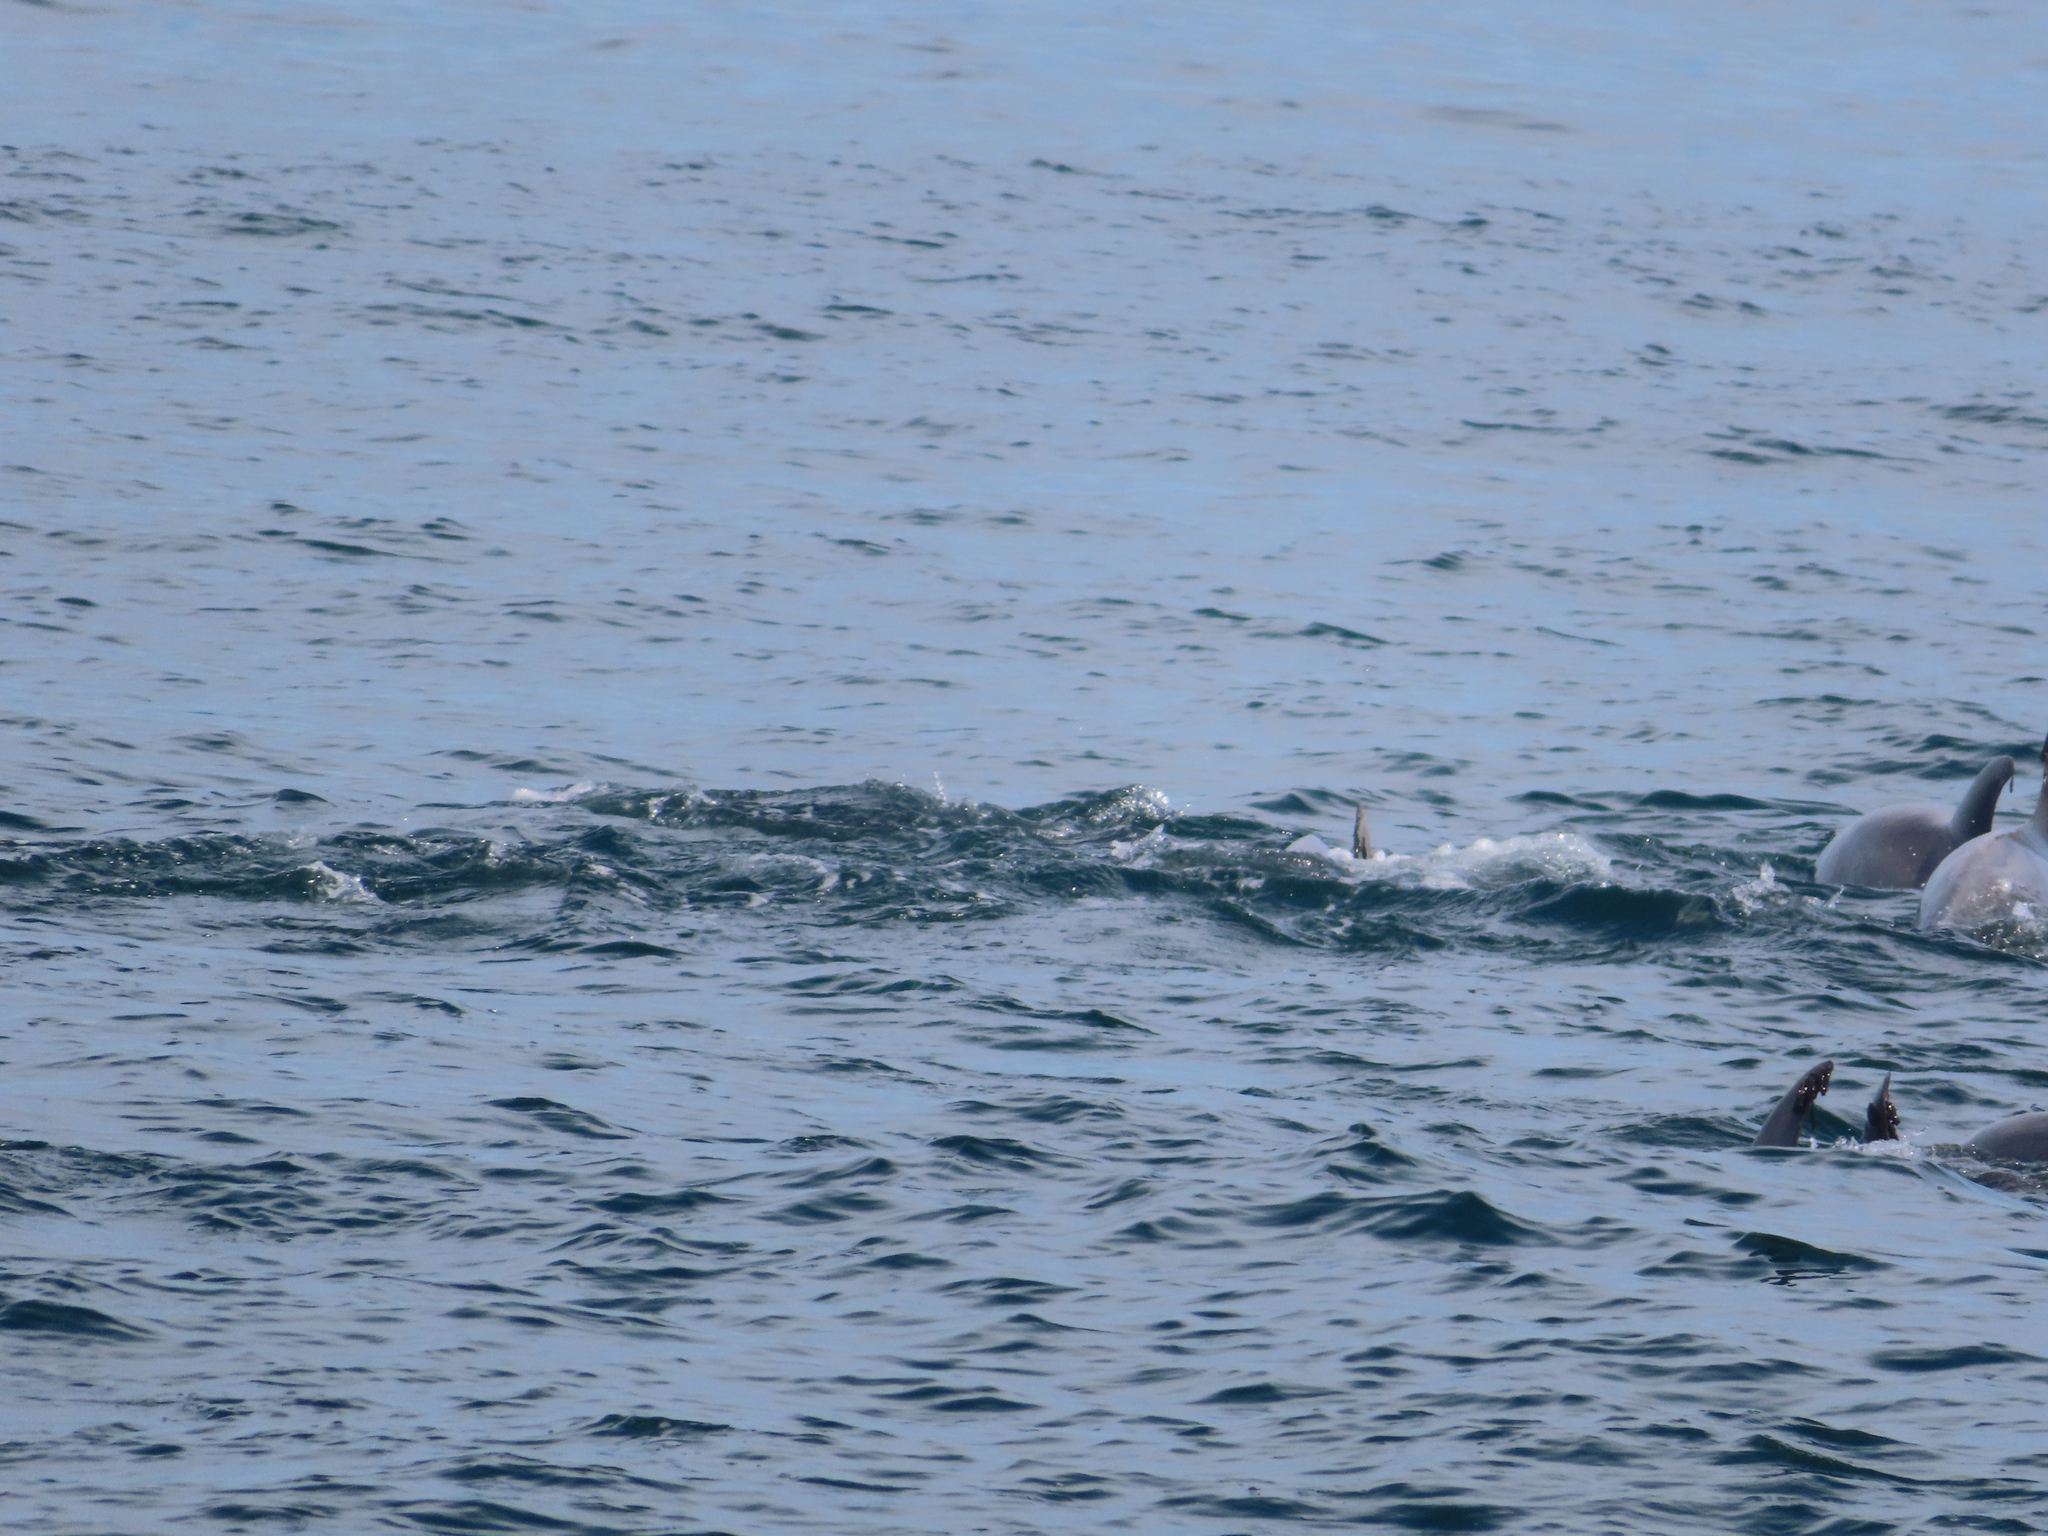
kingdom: Animalia
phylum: Chordata
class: Mammalia
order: Cetacea
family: Delphinidae
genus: Tursiops
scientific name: Tursiops truncatus
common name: Bottlenose dolphin
